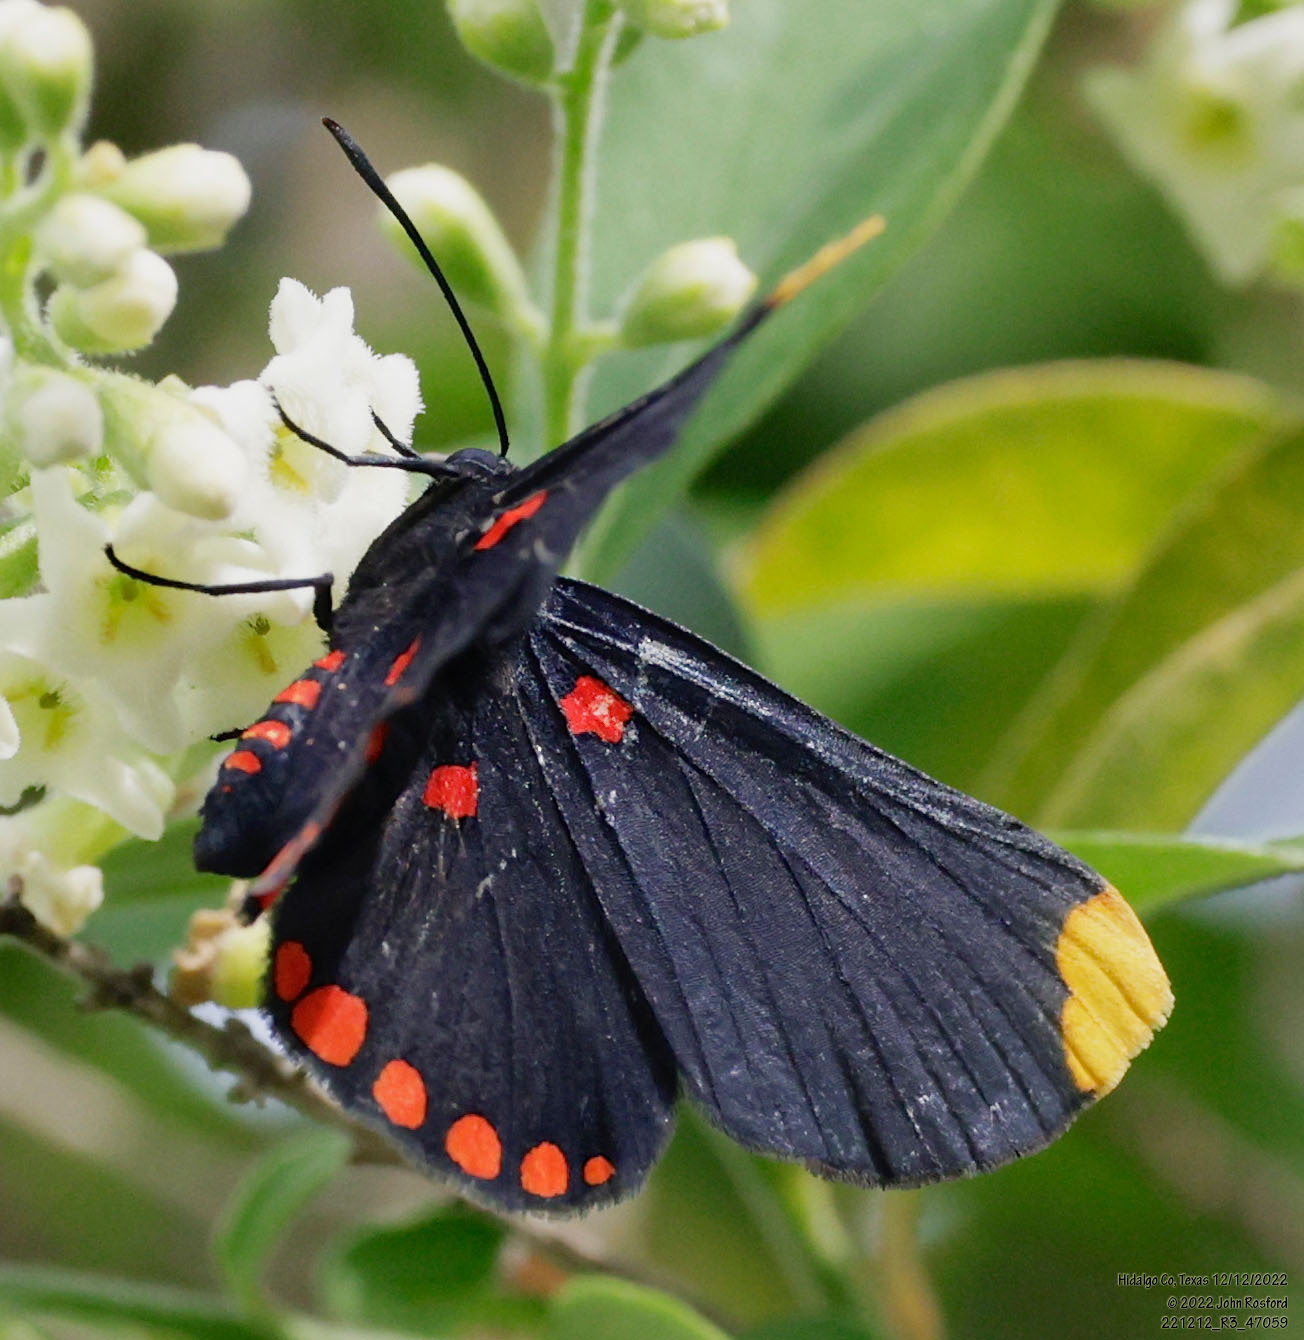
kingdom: Animalia
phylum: Arthropoda
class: Insecta
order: Lepidoptera
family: Lycaenidae
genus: Melanis
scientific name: Melanis pixe
